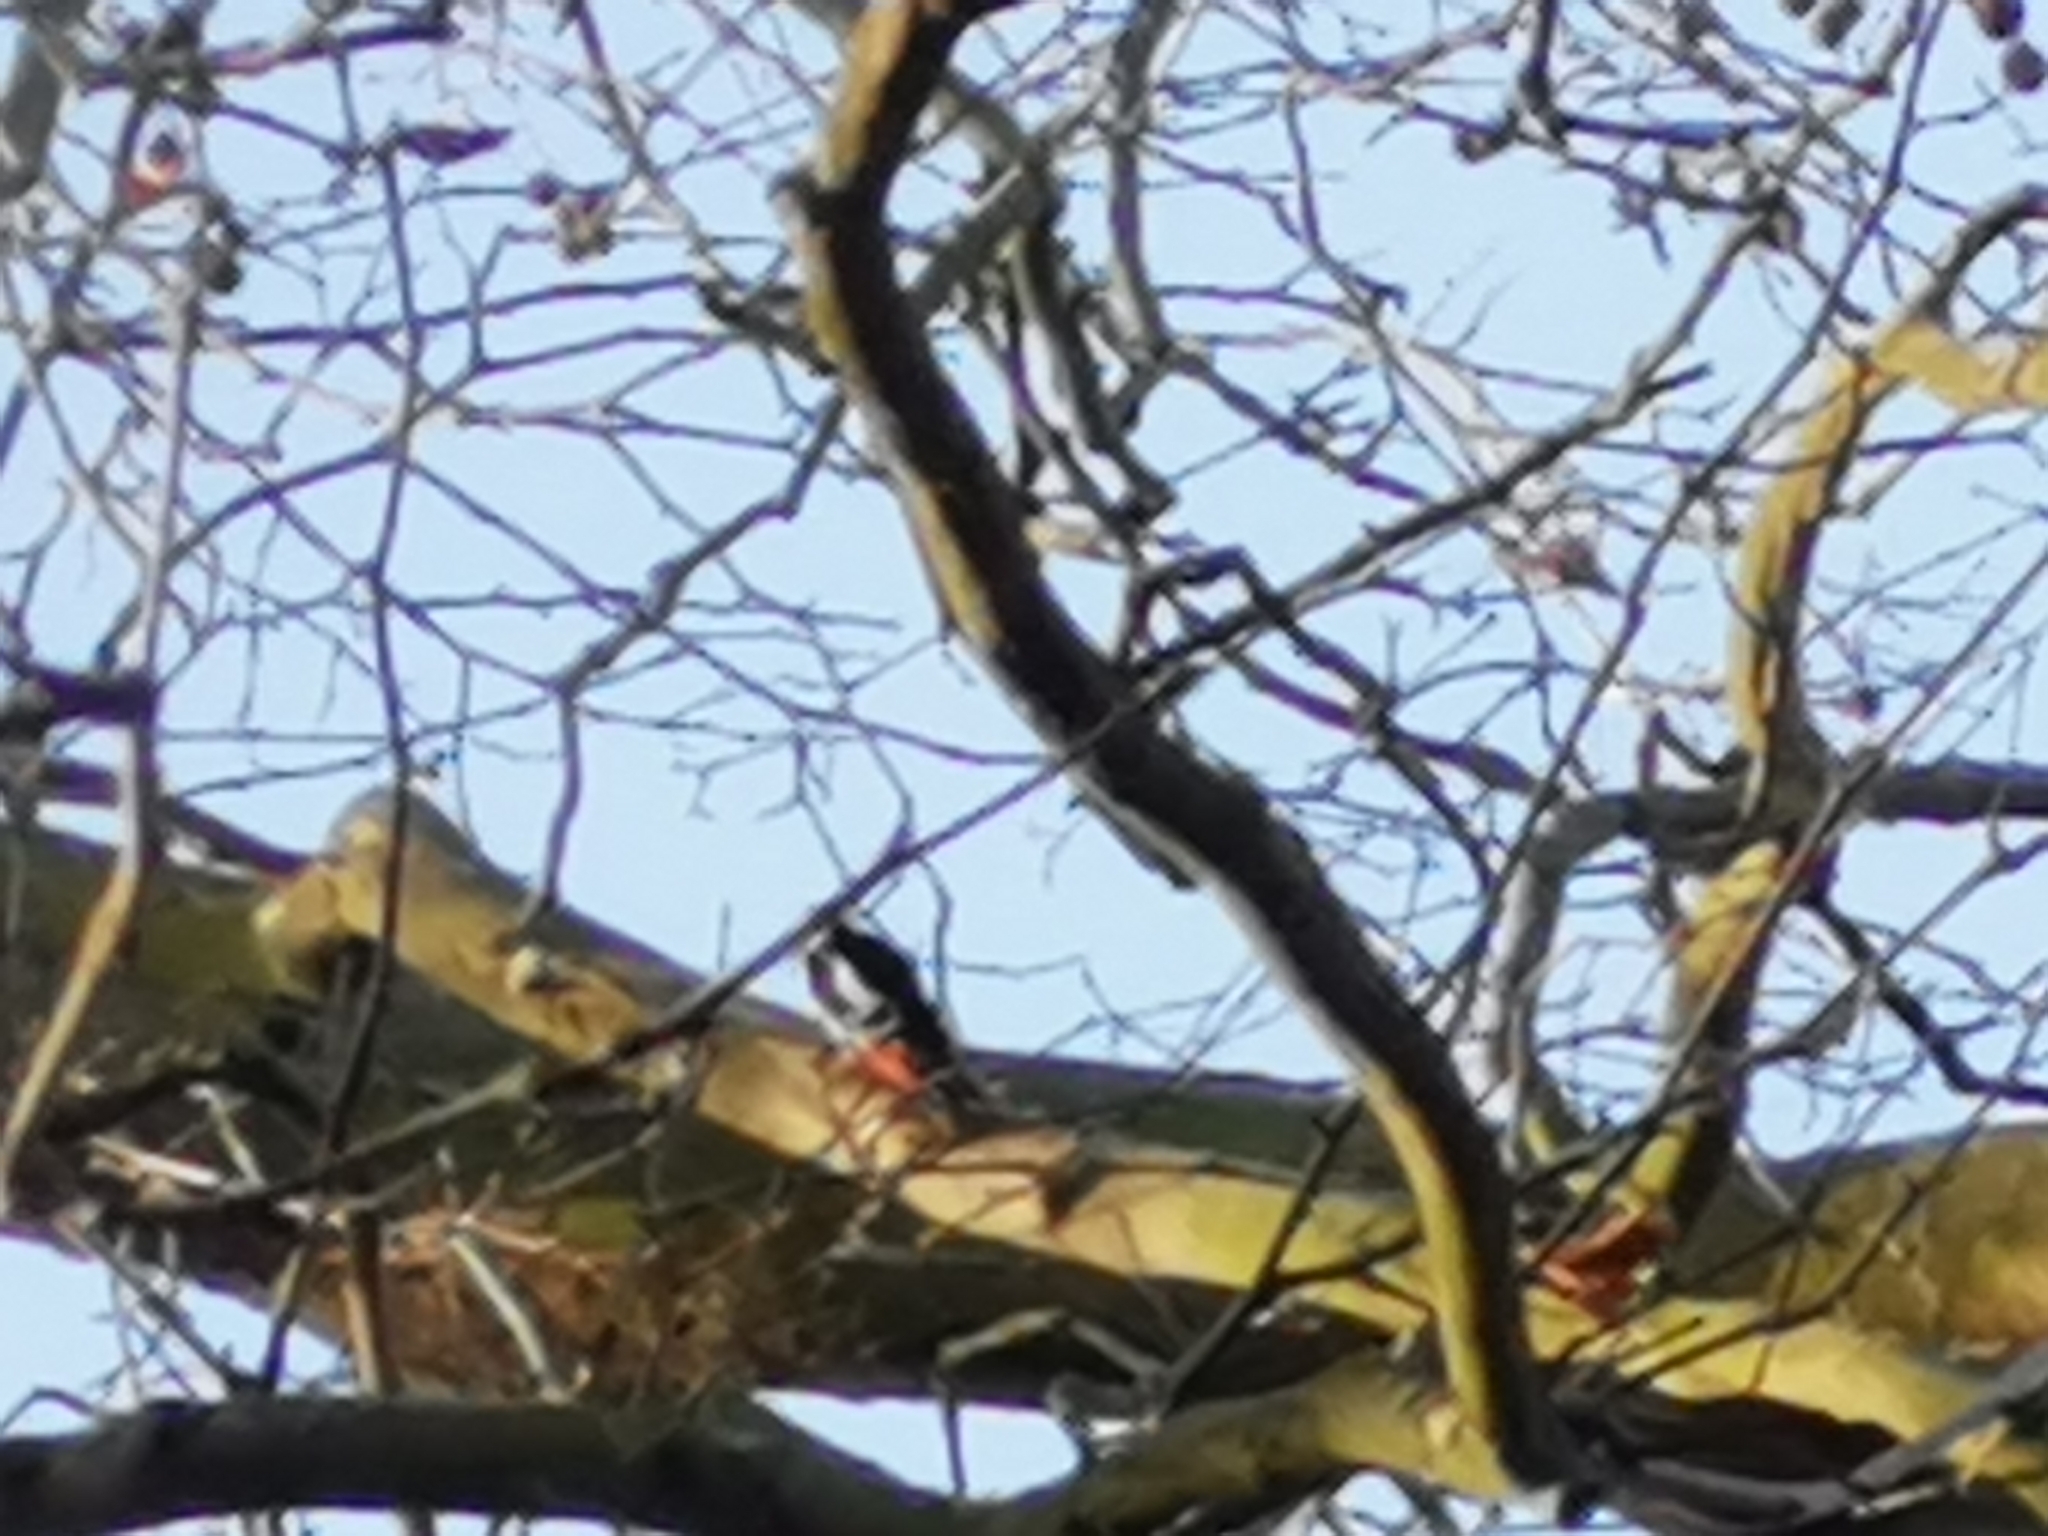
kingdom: Animalia
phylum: Chordata
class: Aves
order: Piciformes
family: Picidae
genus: Dendrocopos
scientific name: Dendrocopos major
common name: Great spotted woodpecker
